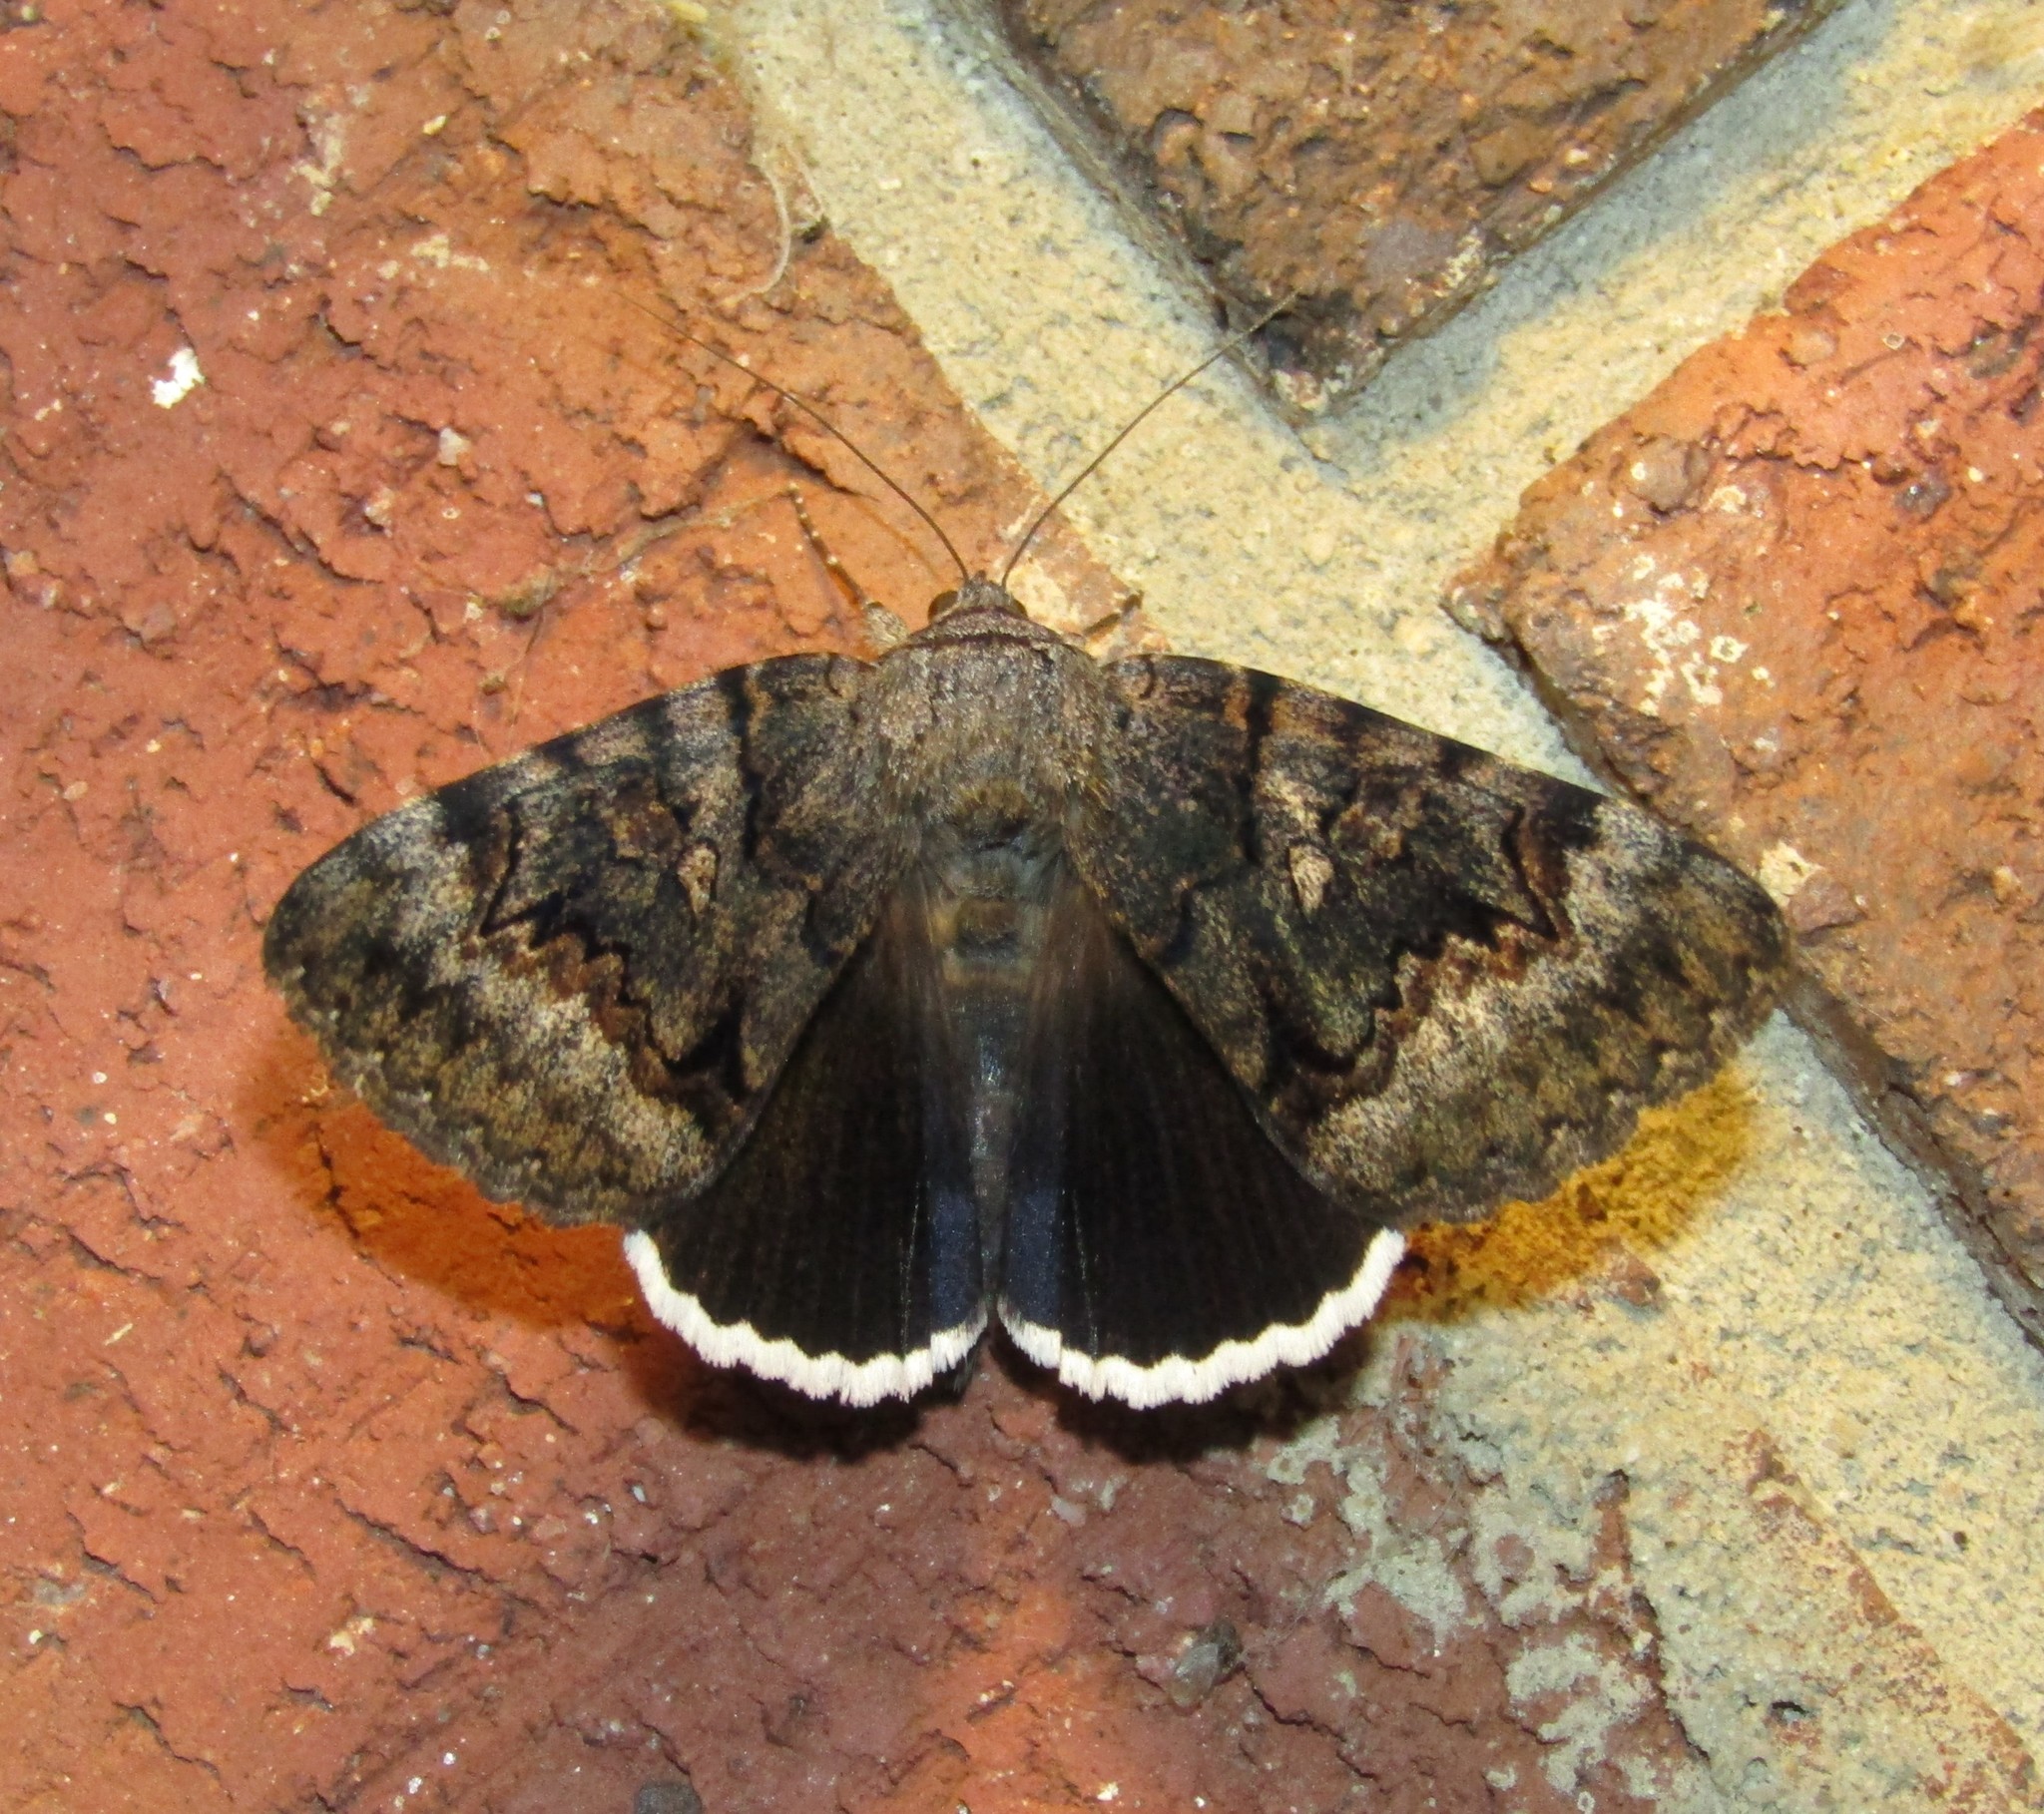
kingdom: Animalia
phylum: Arthropoda
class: Insecta
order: Lepidoptera
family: Erebidae
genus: Catocala
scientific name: Catocala epione
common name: Epione underwing
